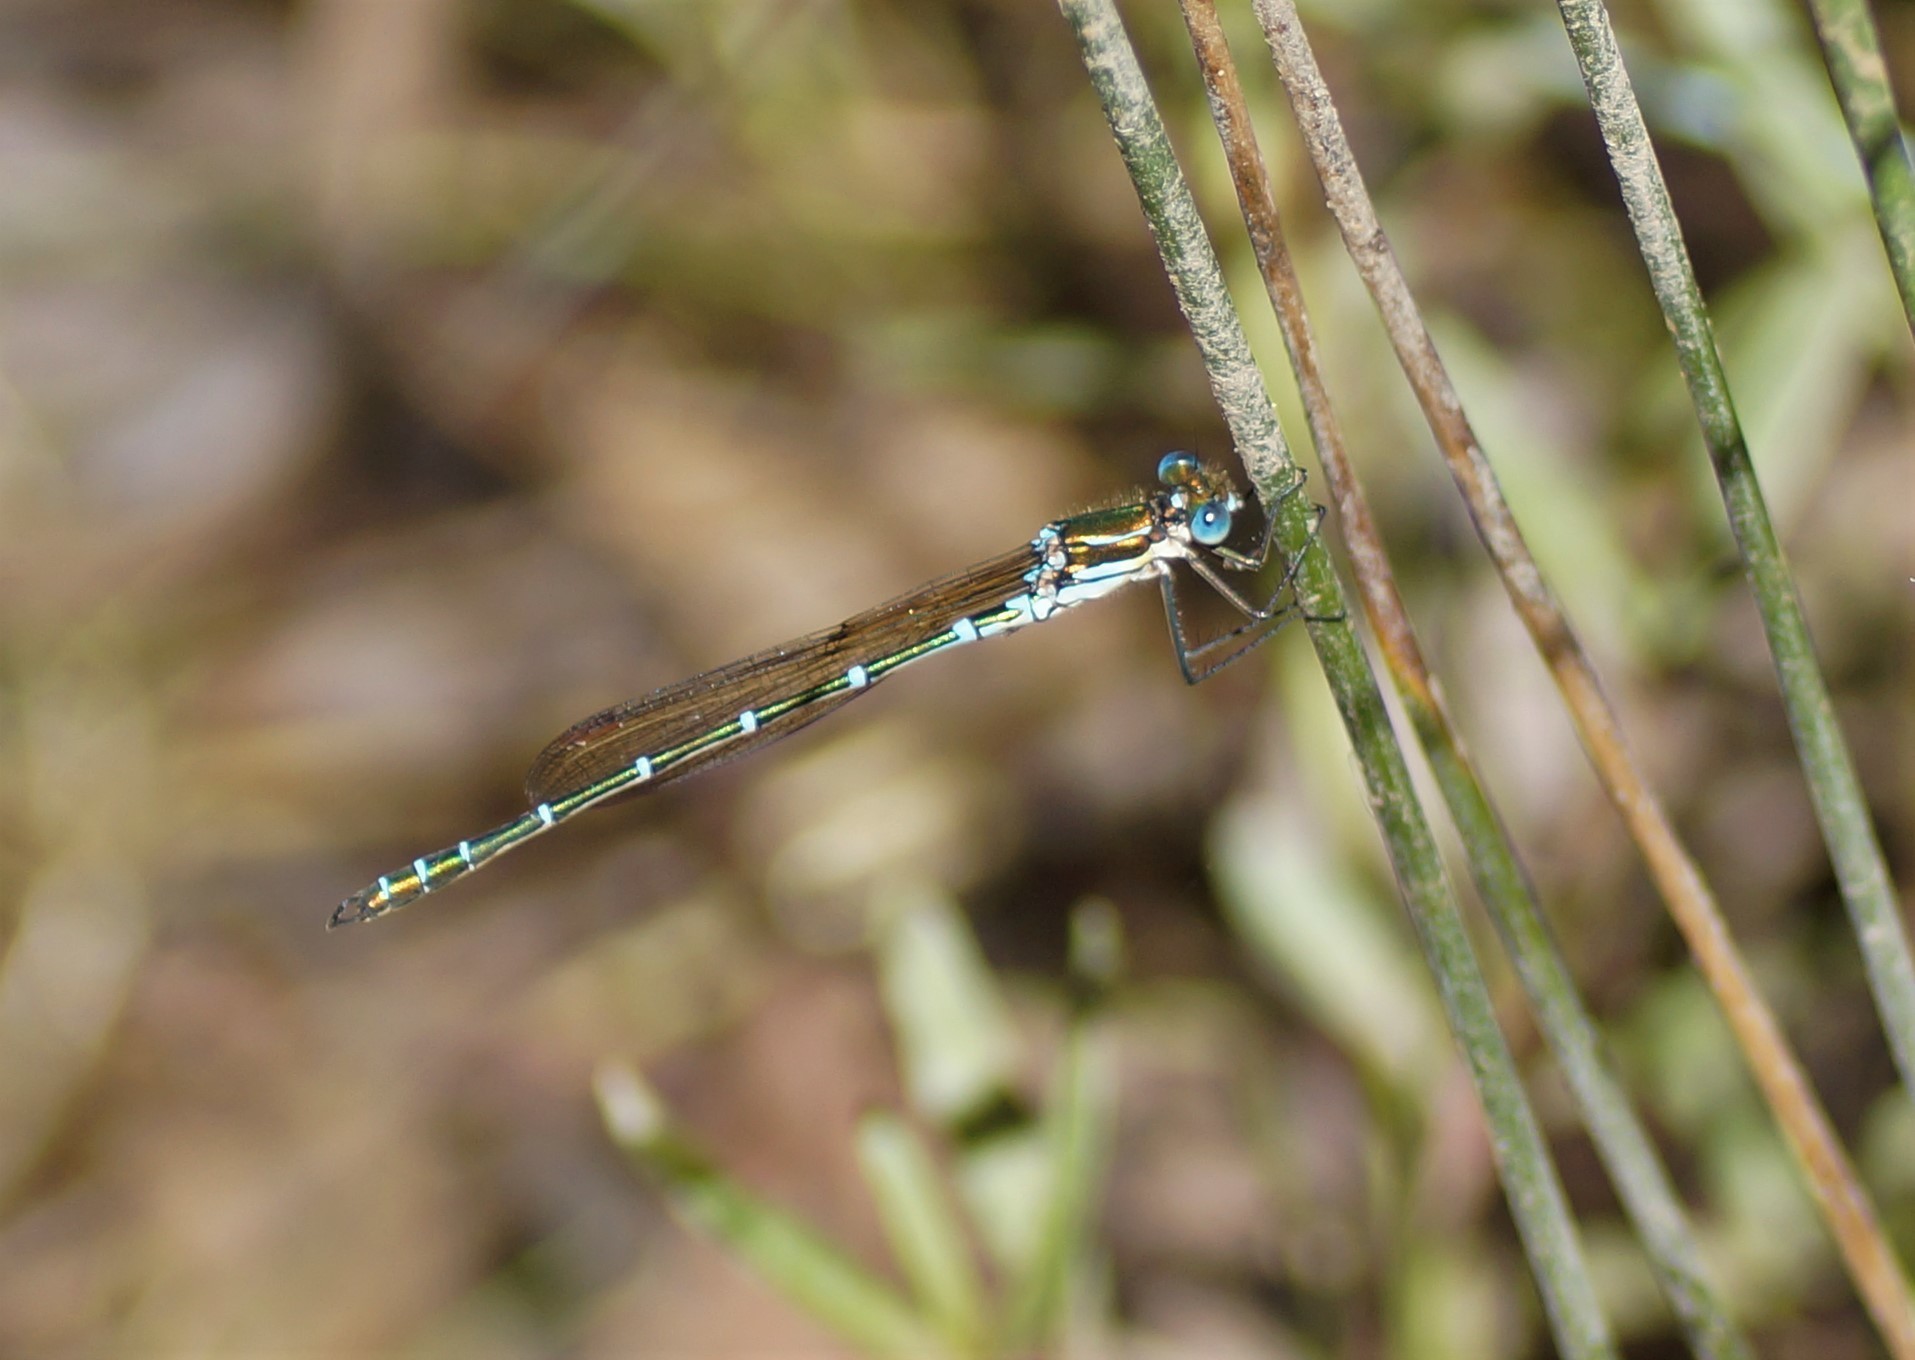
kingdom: Animalia
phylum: Arthropoda
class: Insecta
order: Odonata
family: Lestidae
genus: Austrolestes
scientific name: Austrolestes cingulatus
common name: Metallic ringtail
